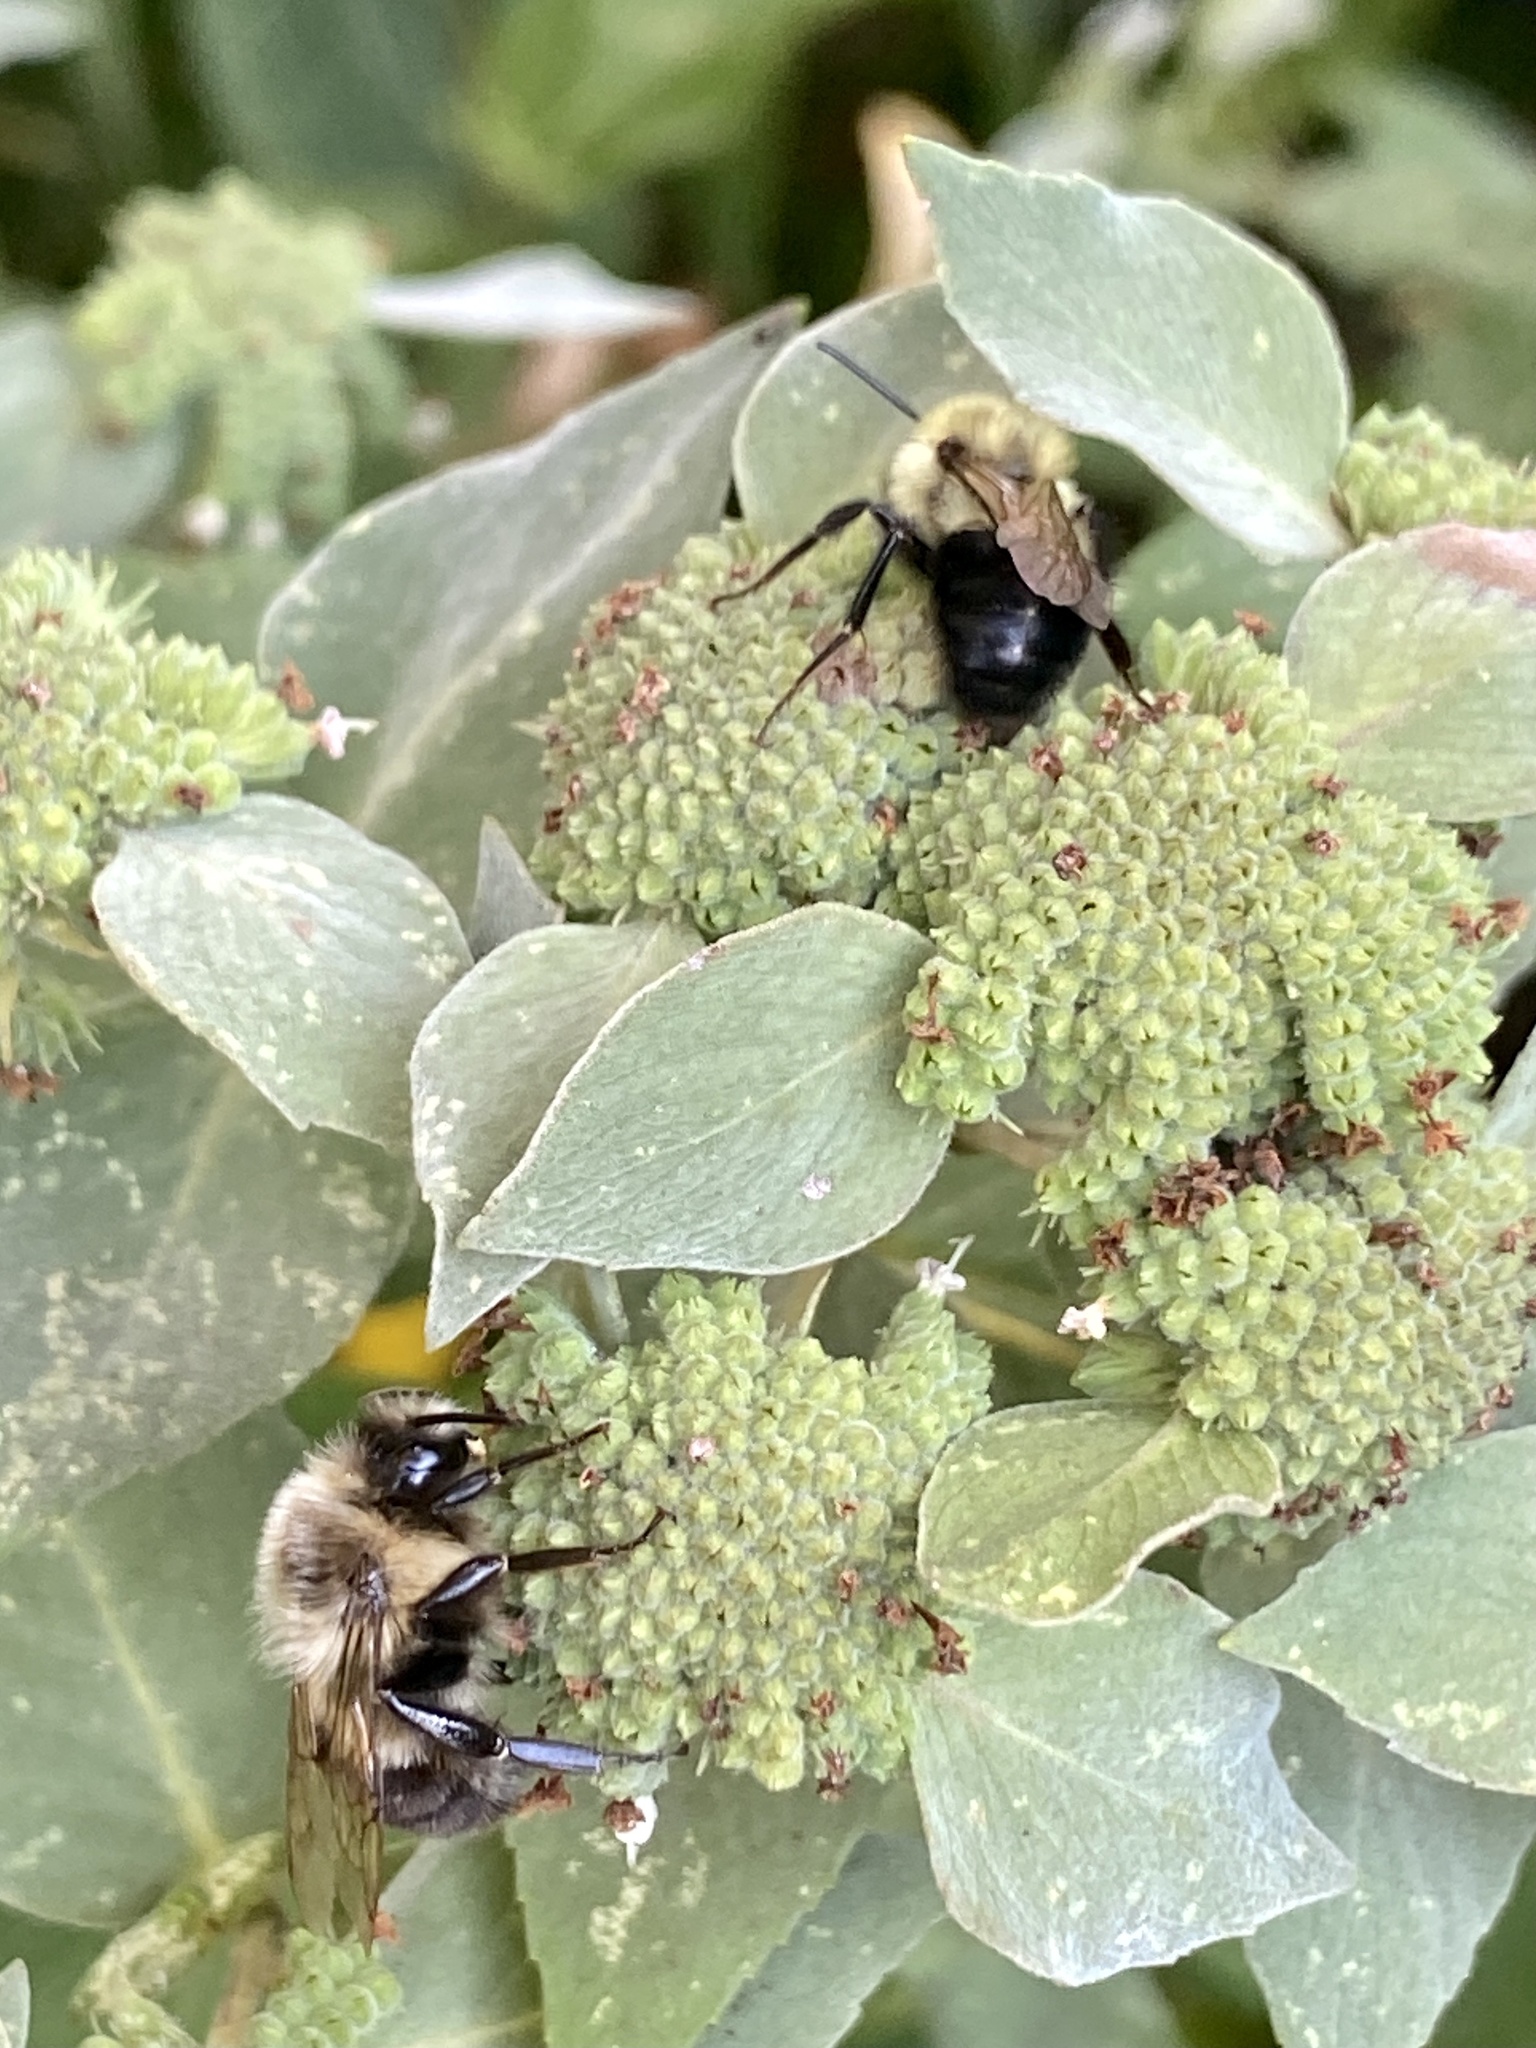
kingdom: Animalia
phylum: Arthropoda
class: Insecta
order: Hymenoptera
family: Apidae
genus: Bombus
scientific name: Bombus impatiens
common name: Common eastern bumble bee
